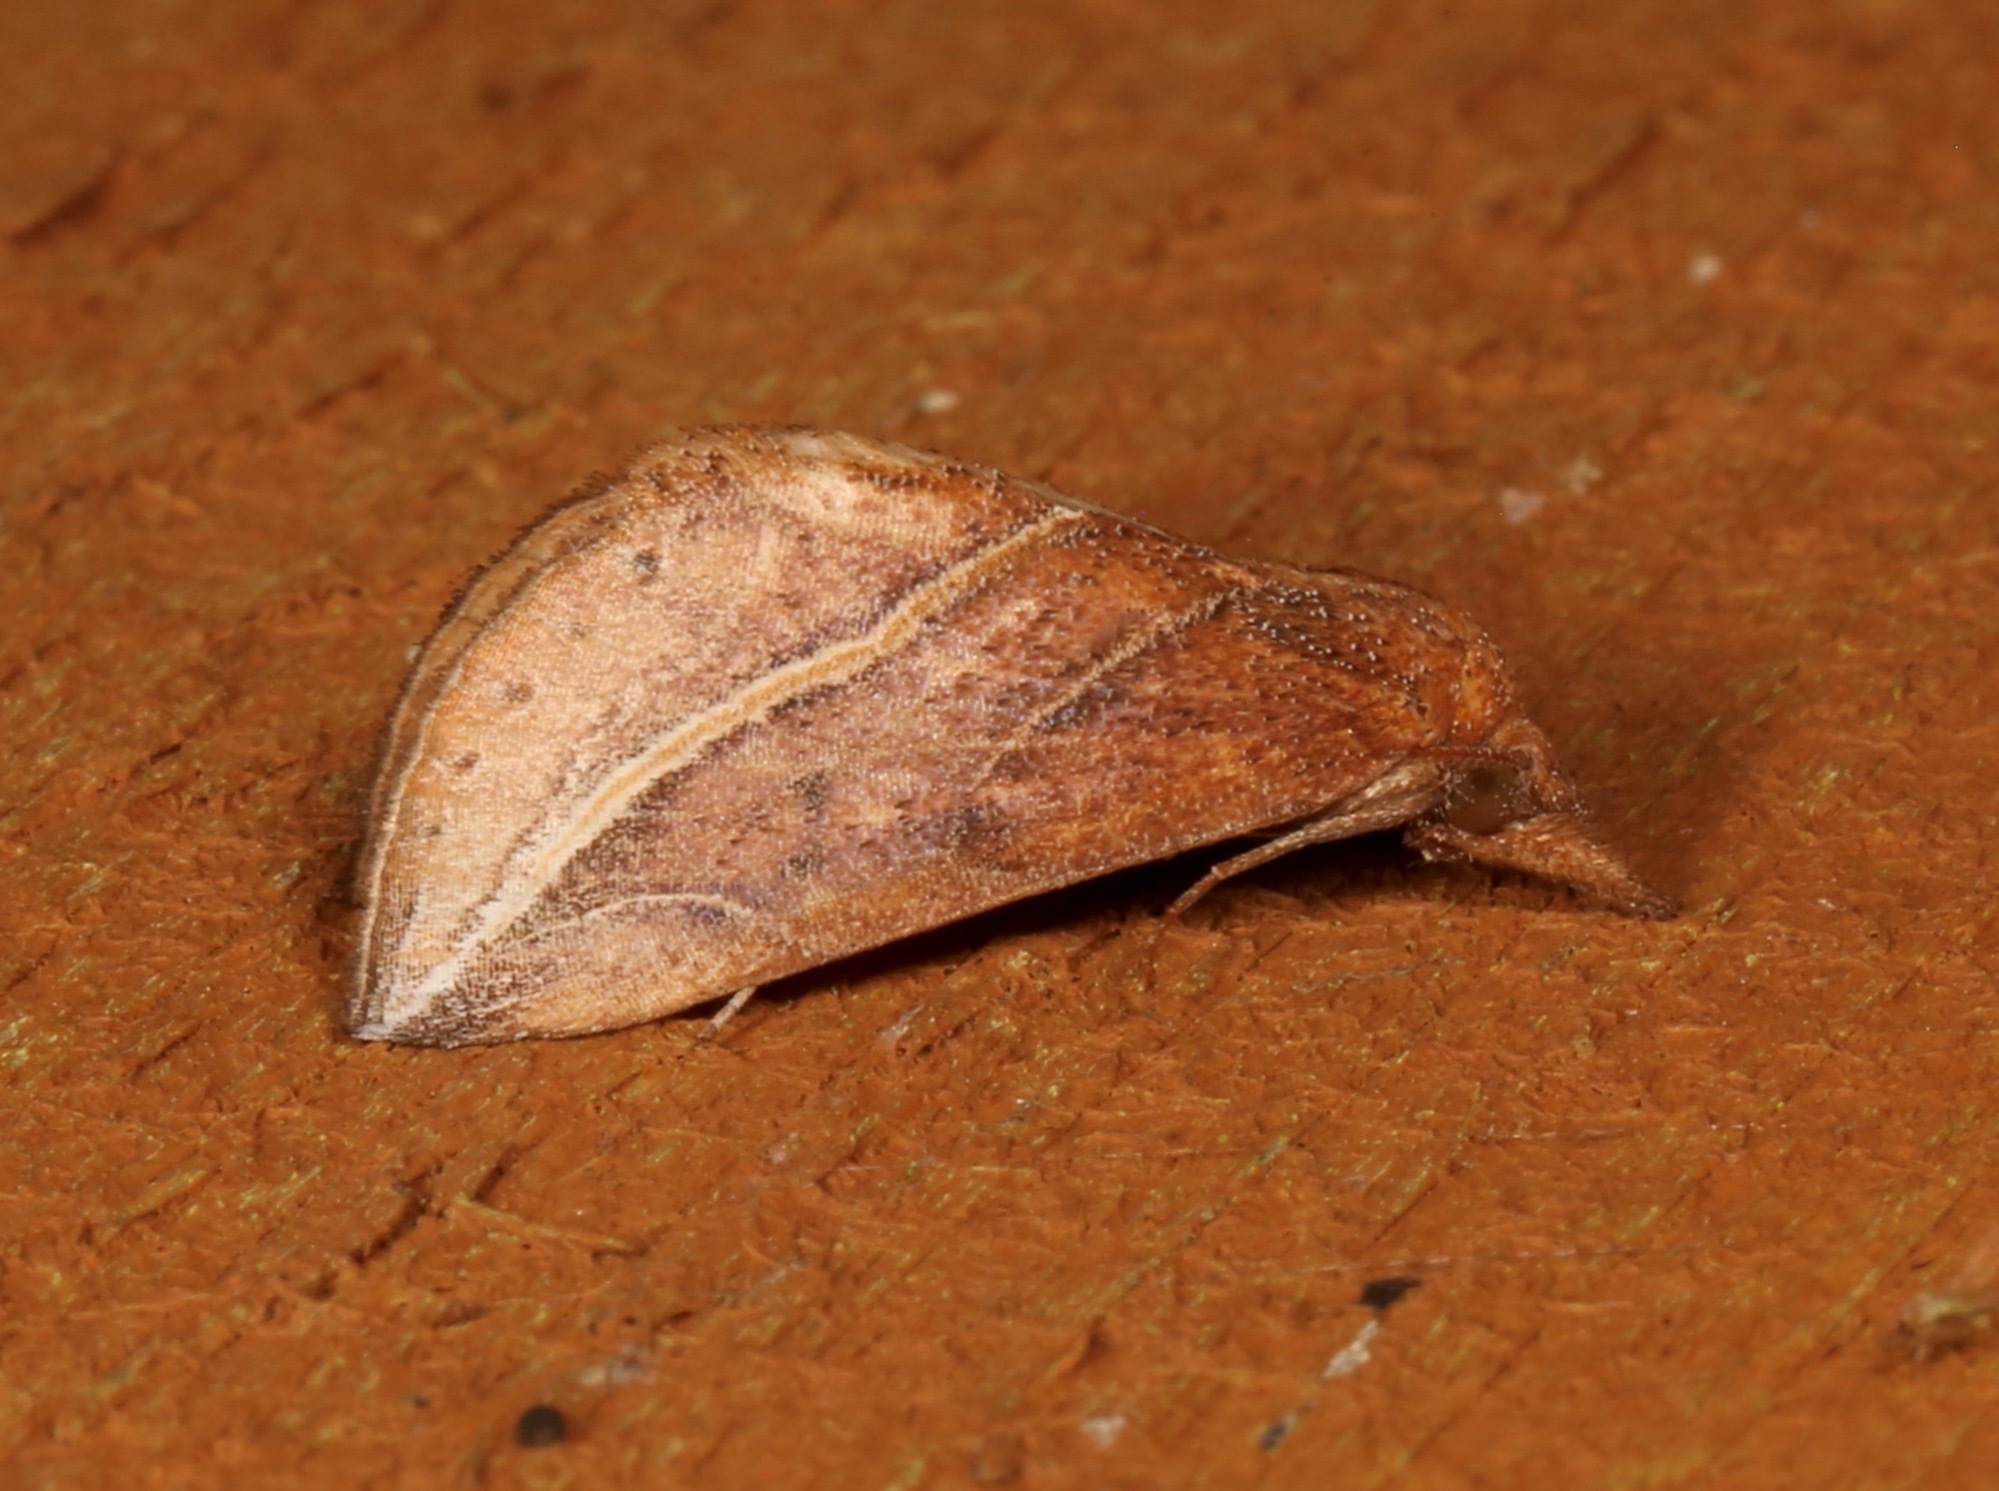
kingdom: Animalia
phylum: Arthropoda
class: Insecta
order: Lepidoptera
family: Erebidae
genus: Phyprosopus
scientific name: Phyprosopus callitrichoides
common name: Curved-lined owlet
